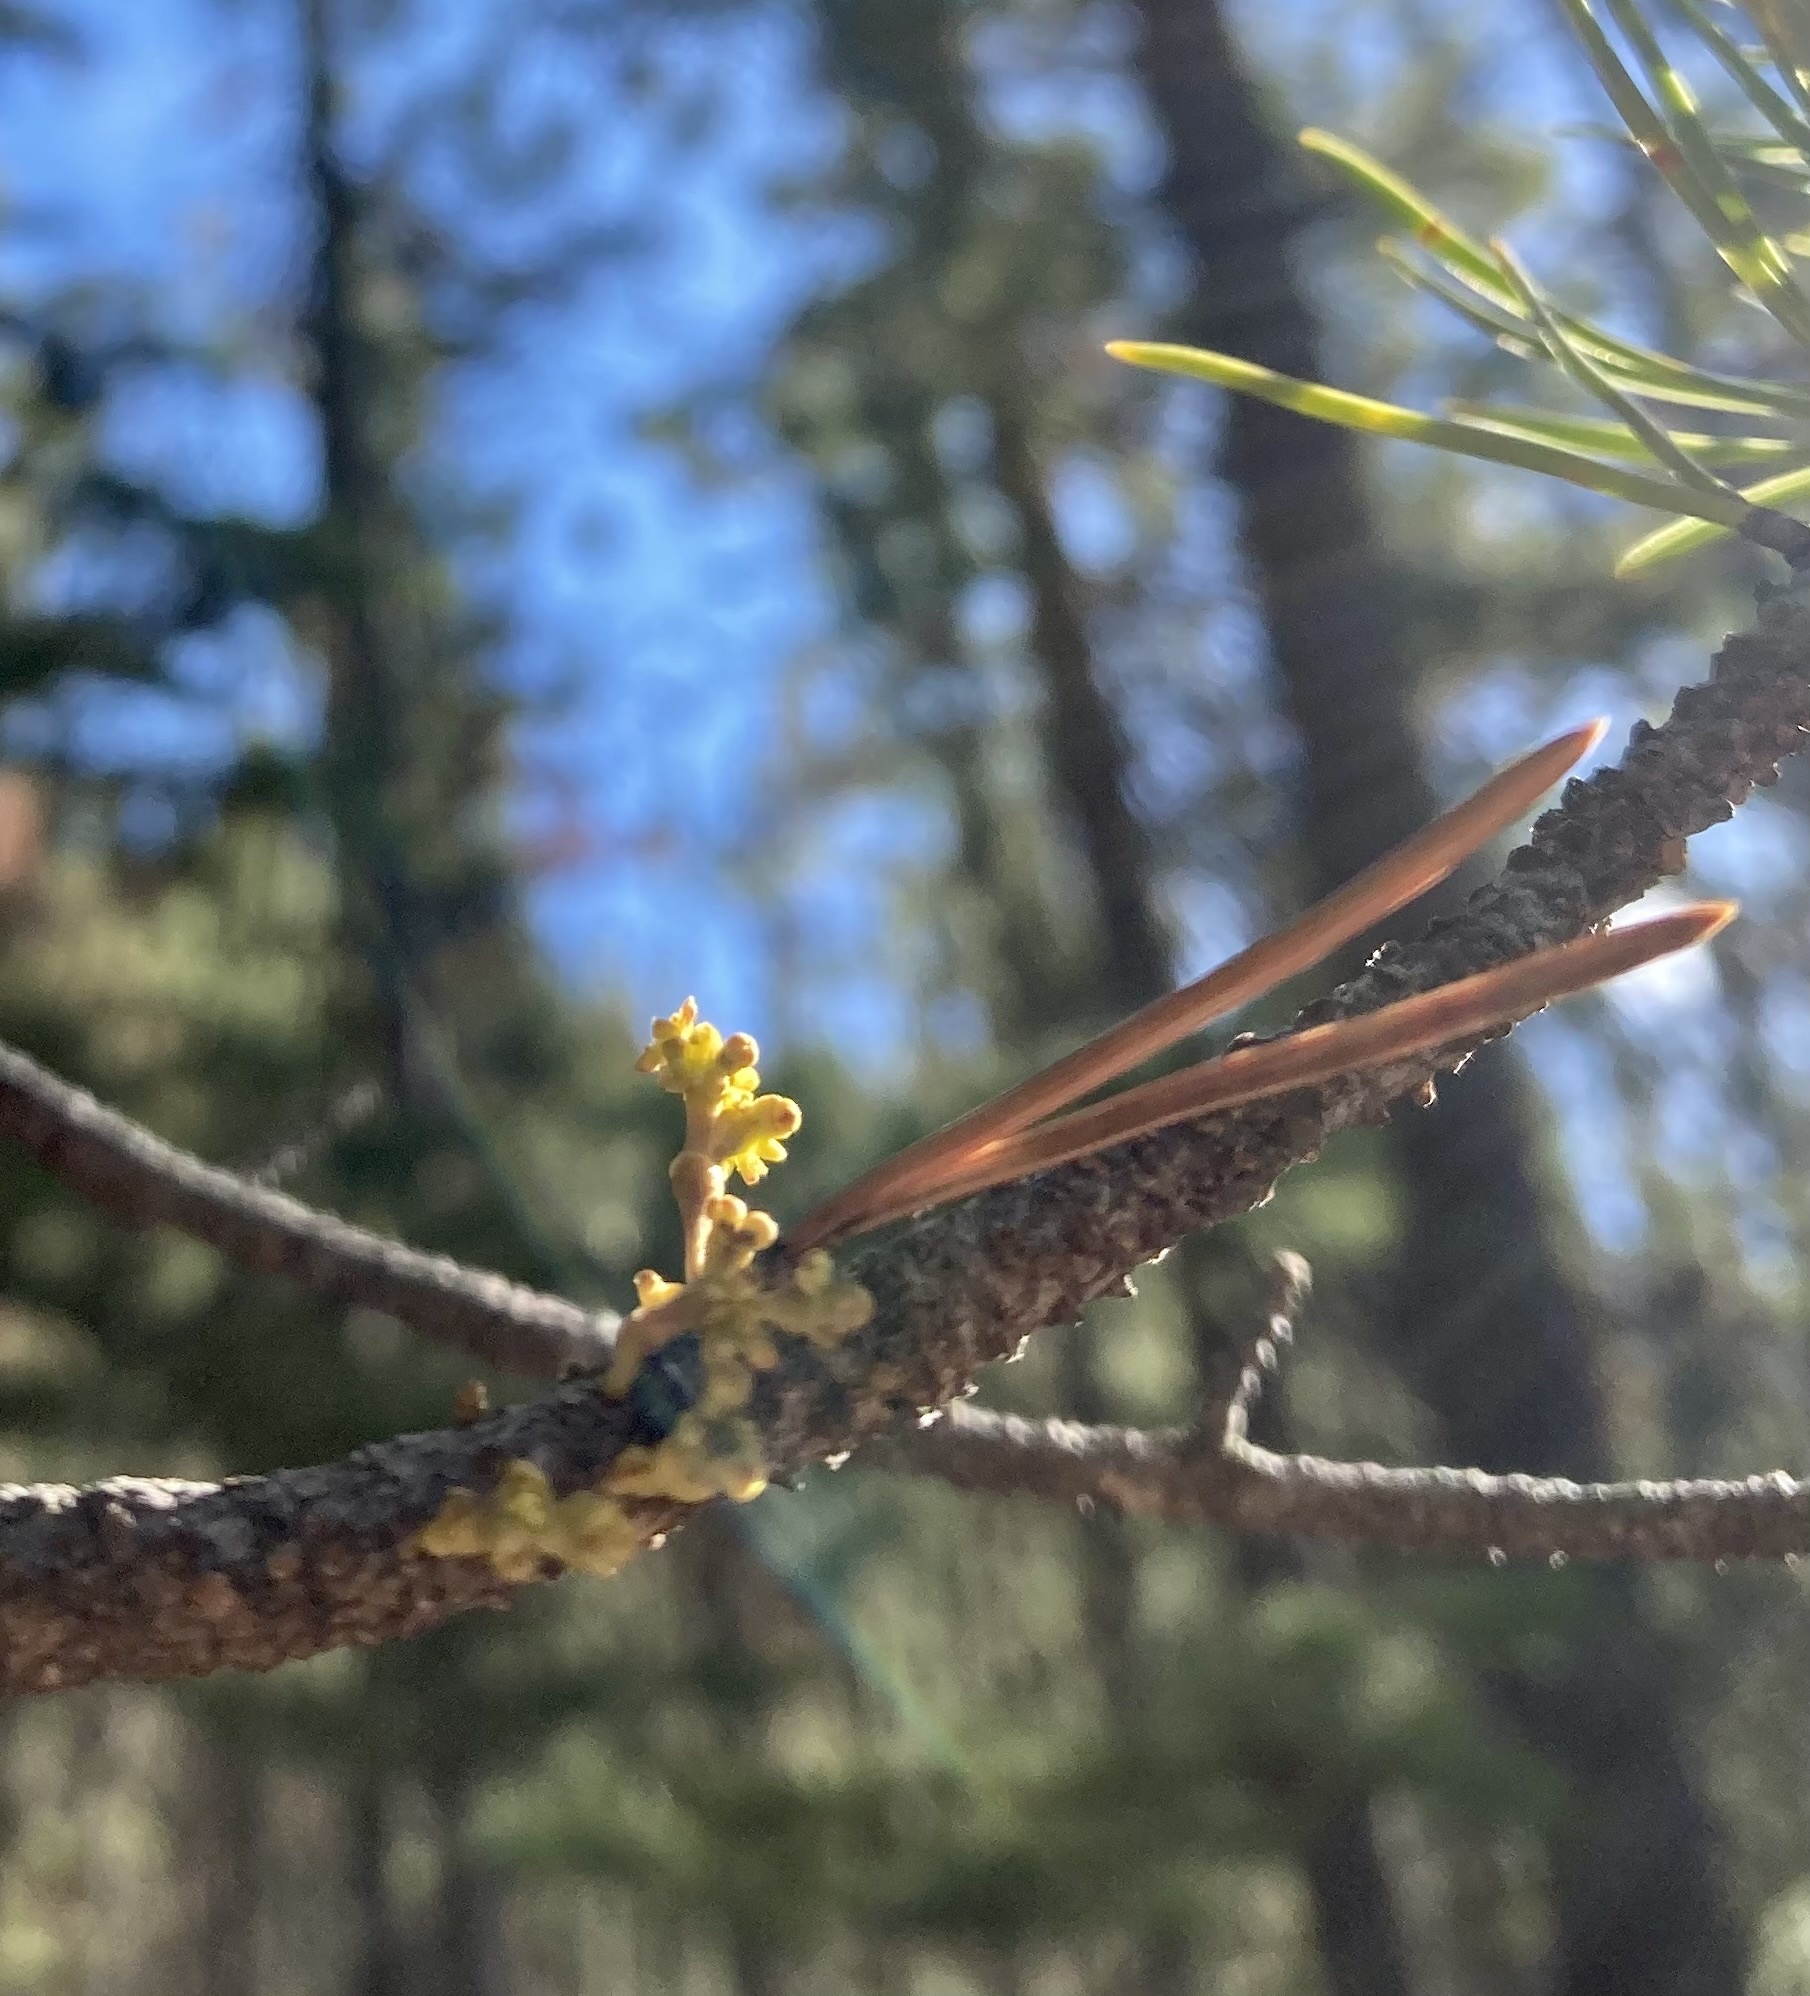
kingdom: Plantae
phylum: Tracheophyta
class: Magnoliopsida
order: Santalales
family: Viscaceae
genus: Arceuthobium
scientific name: Arceuthobium americanum
